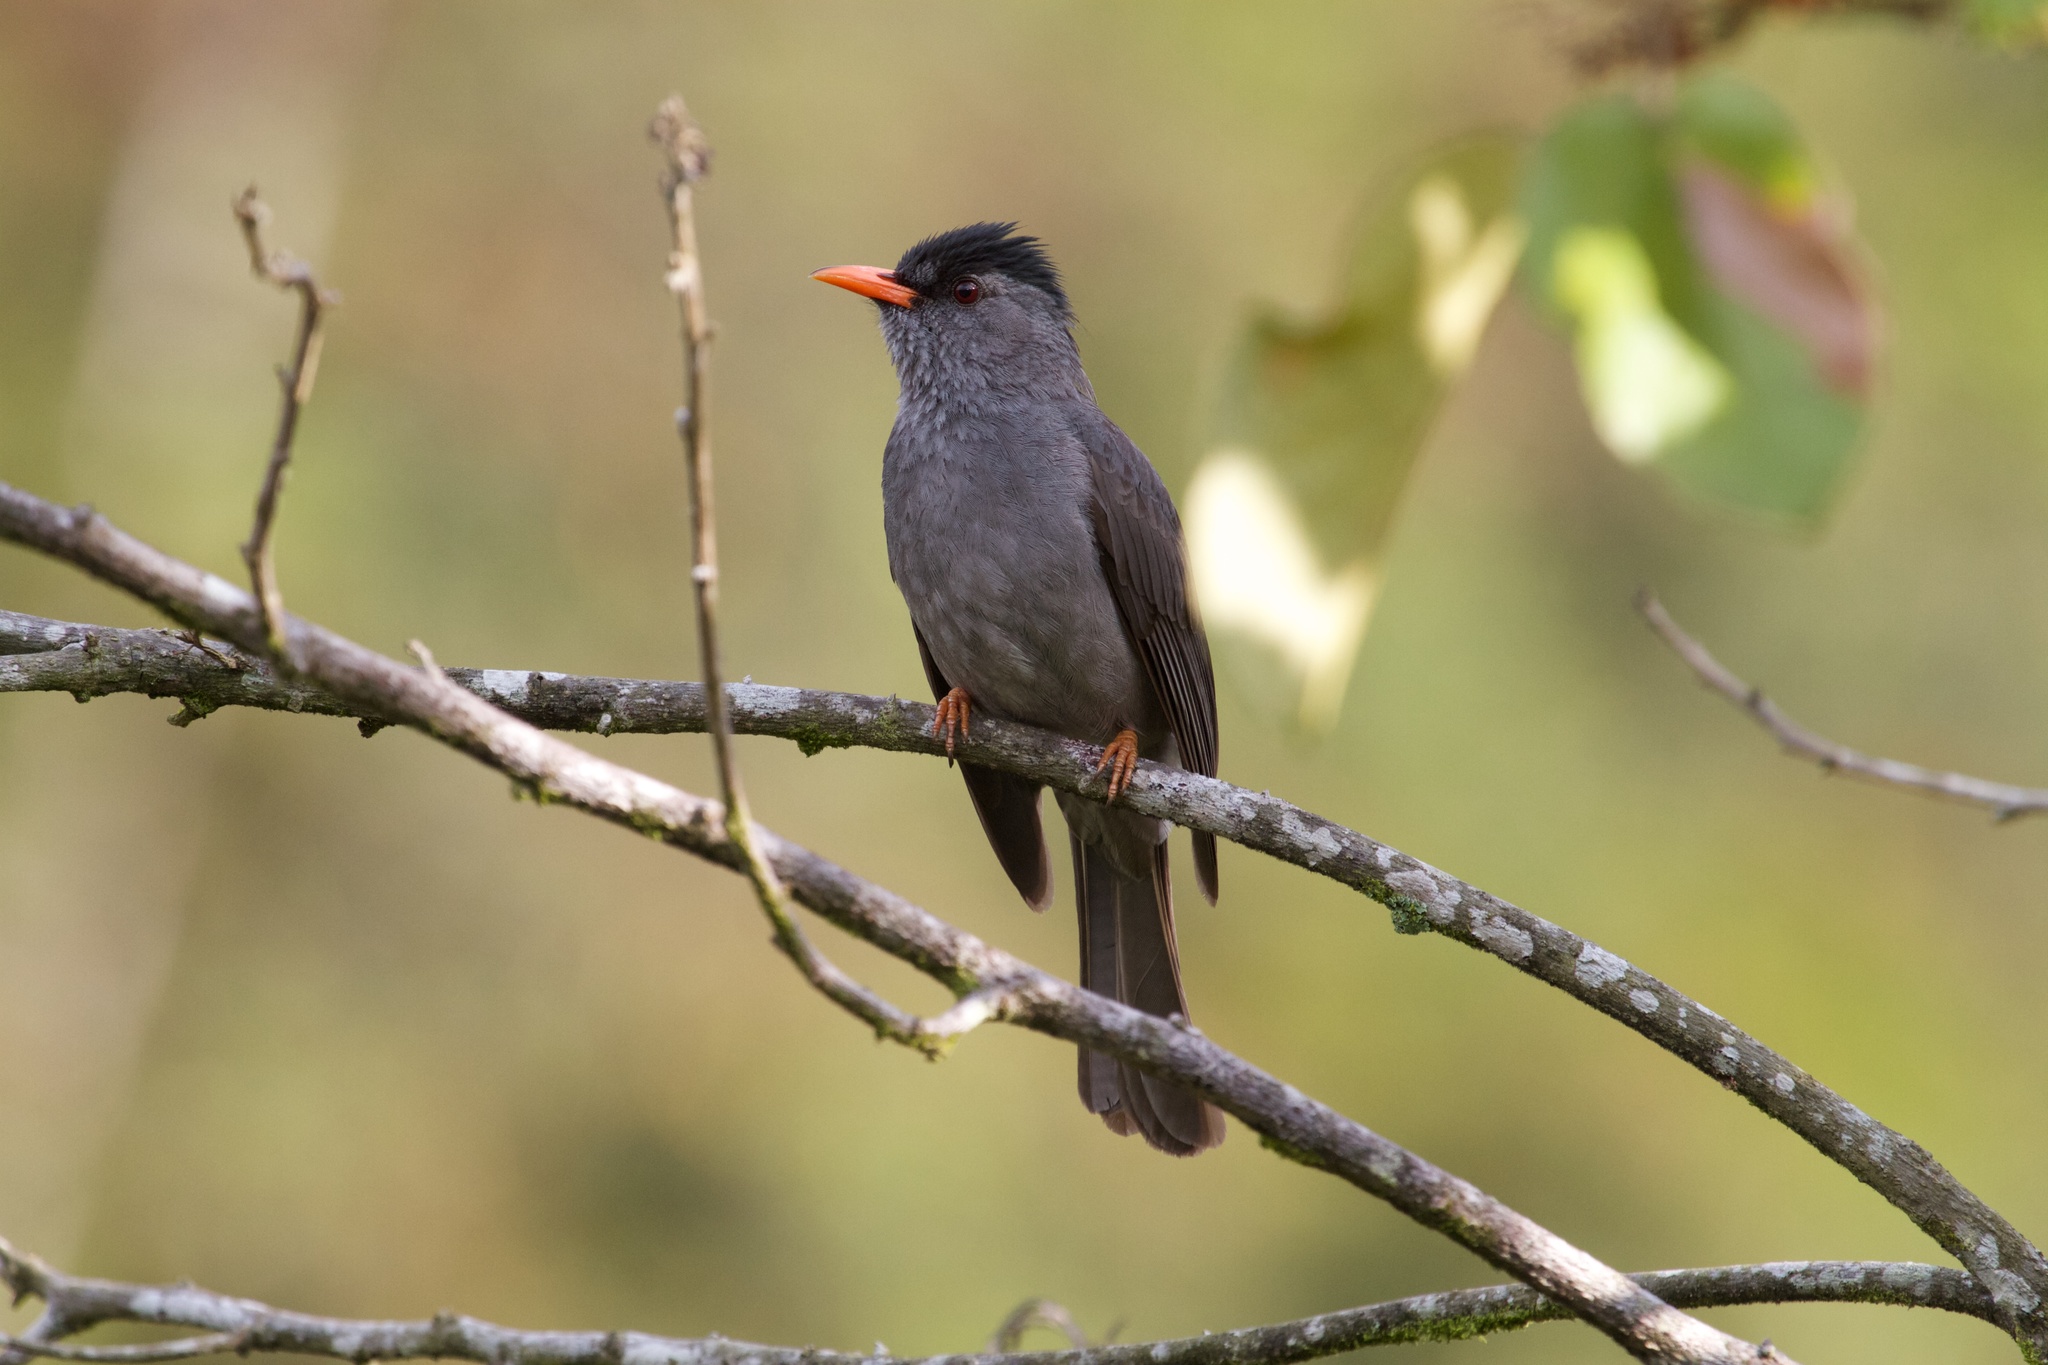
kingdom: Animalia
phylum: Chordata
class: Aves
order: Passeriformes
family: Pycnonotidae
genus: Hypsipetes
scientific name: Hypsipetes madagascariensis
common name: Malagasy bulbul
